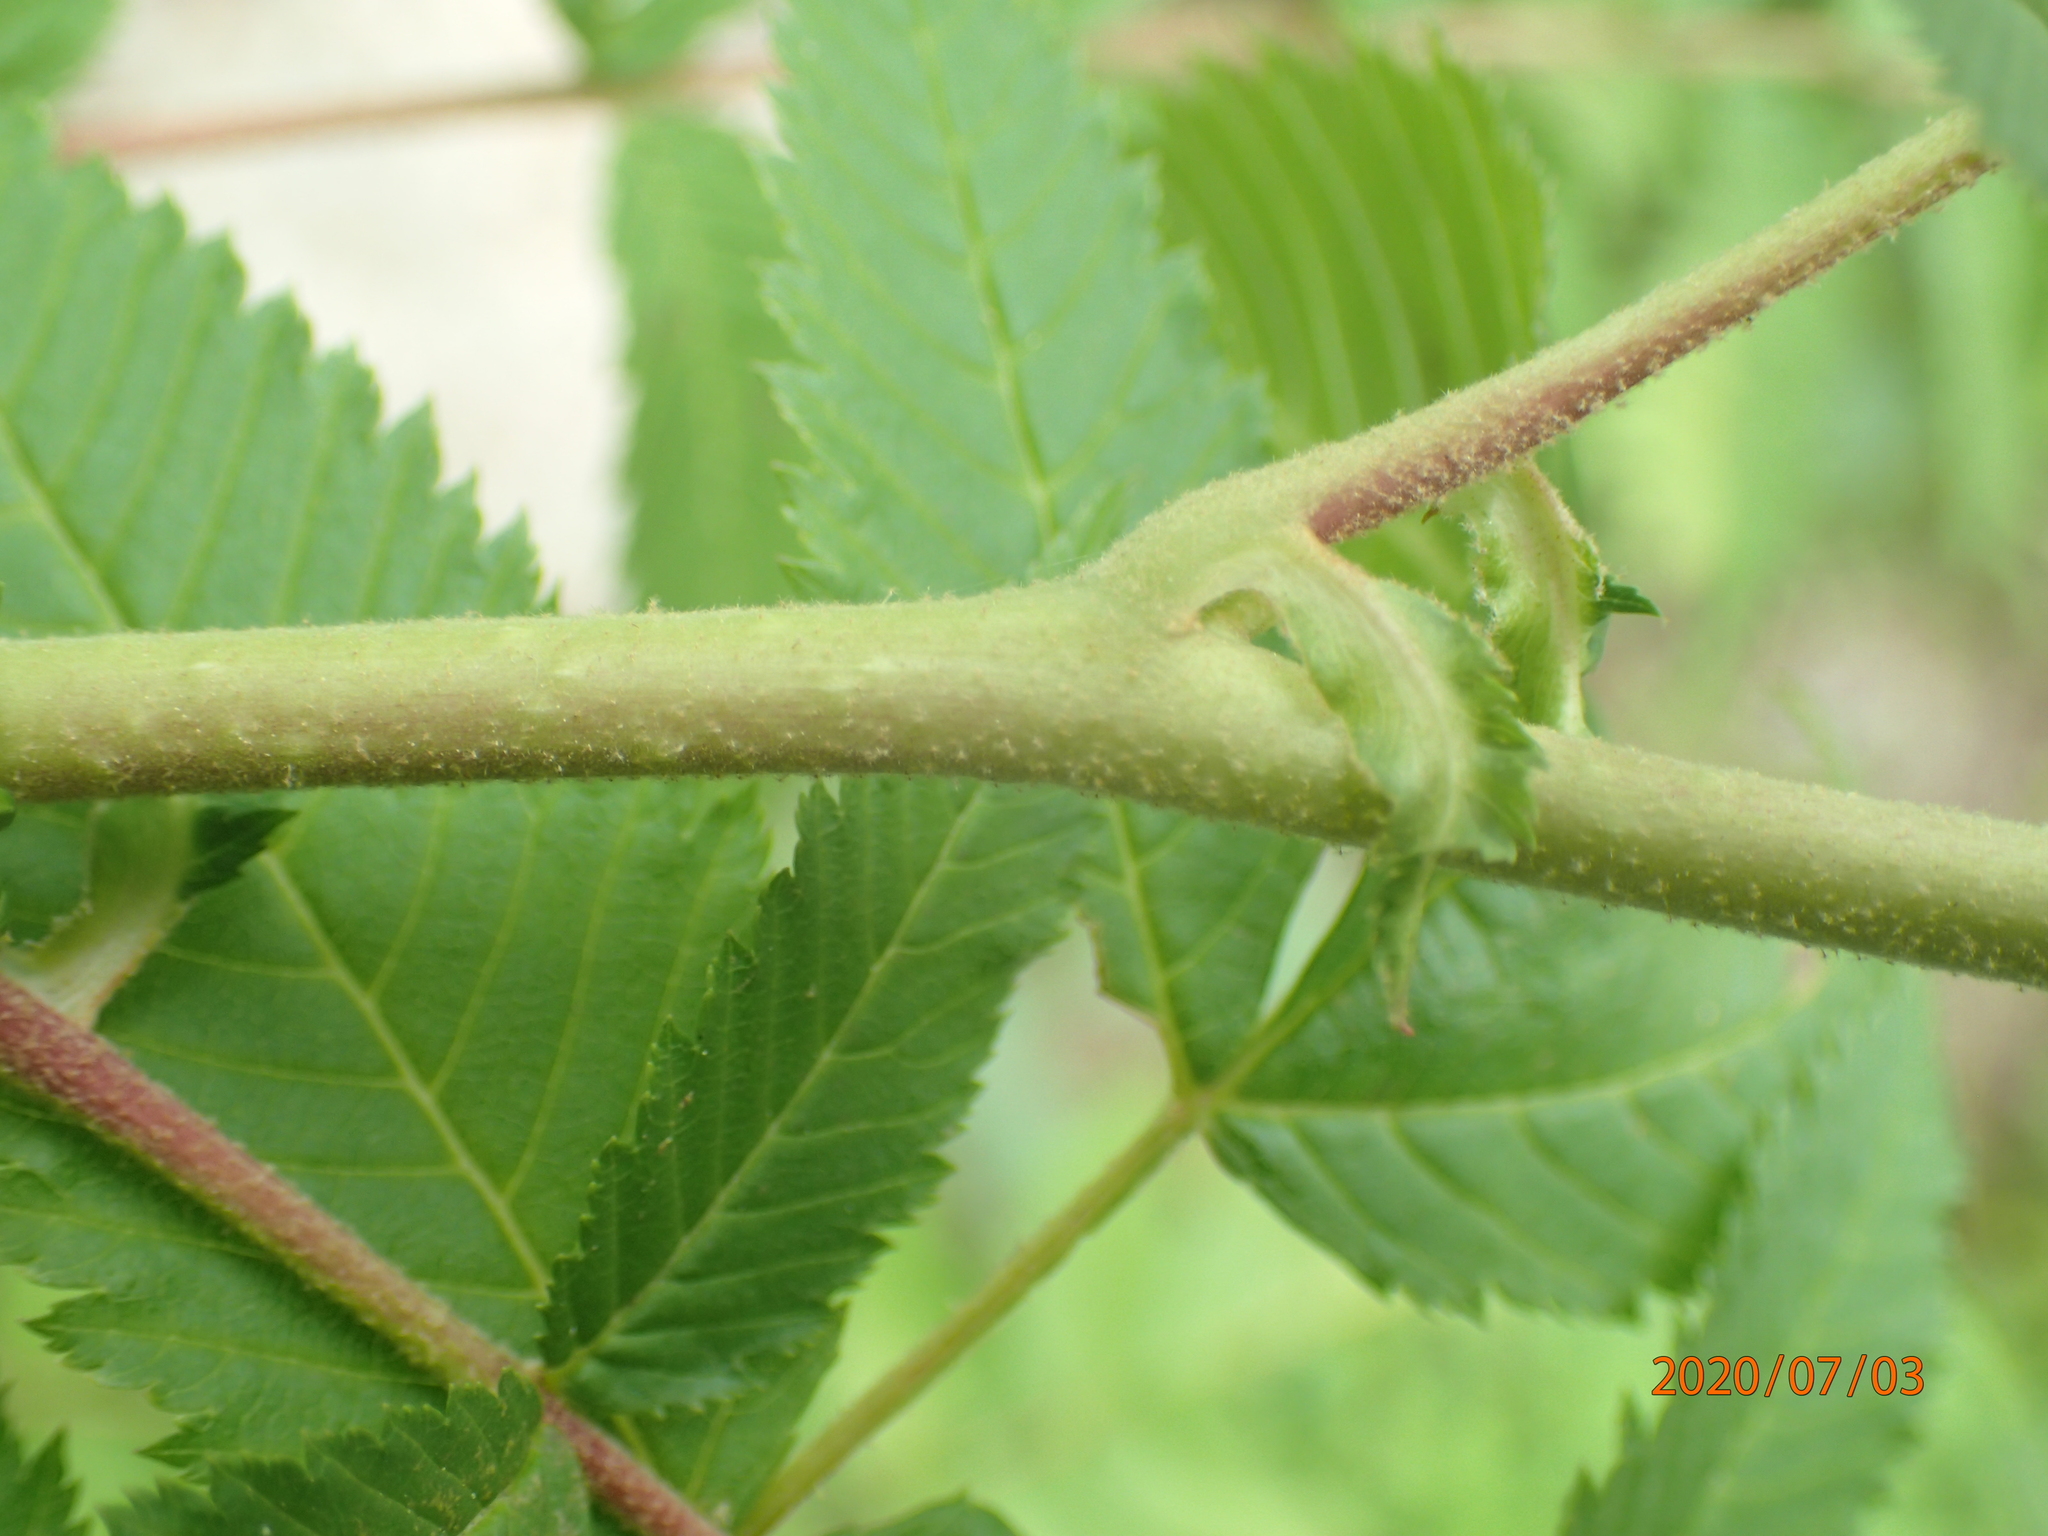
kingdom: Plantae
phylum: Tracheophyta
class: Magnoliopsida
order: Rosales
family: Rosaceae
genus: Sorbaria
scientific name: Sorbaria sorbifolia
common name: False spiraea
